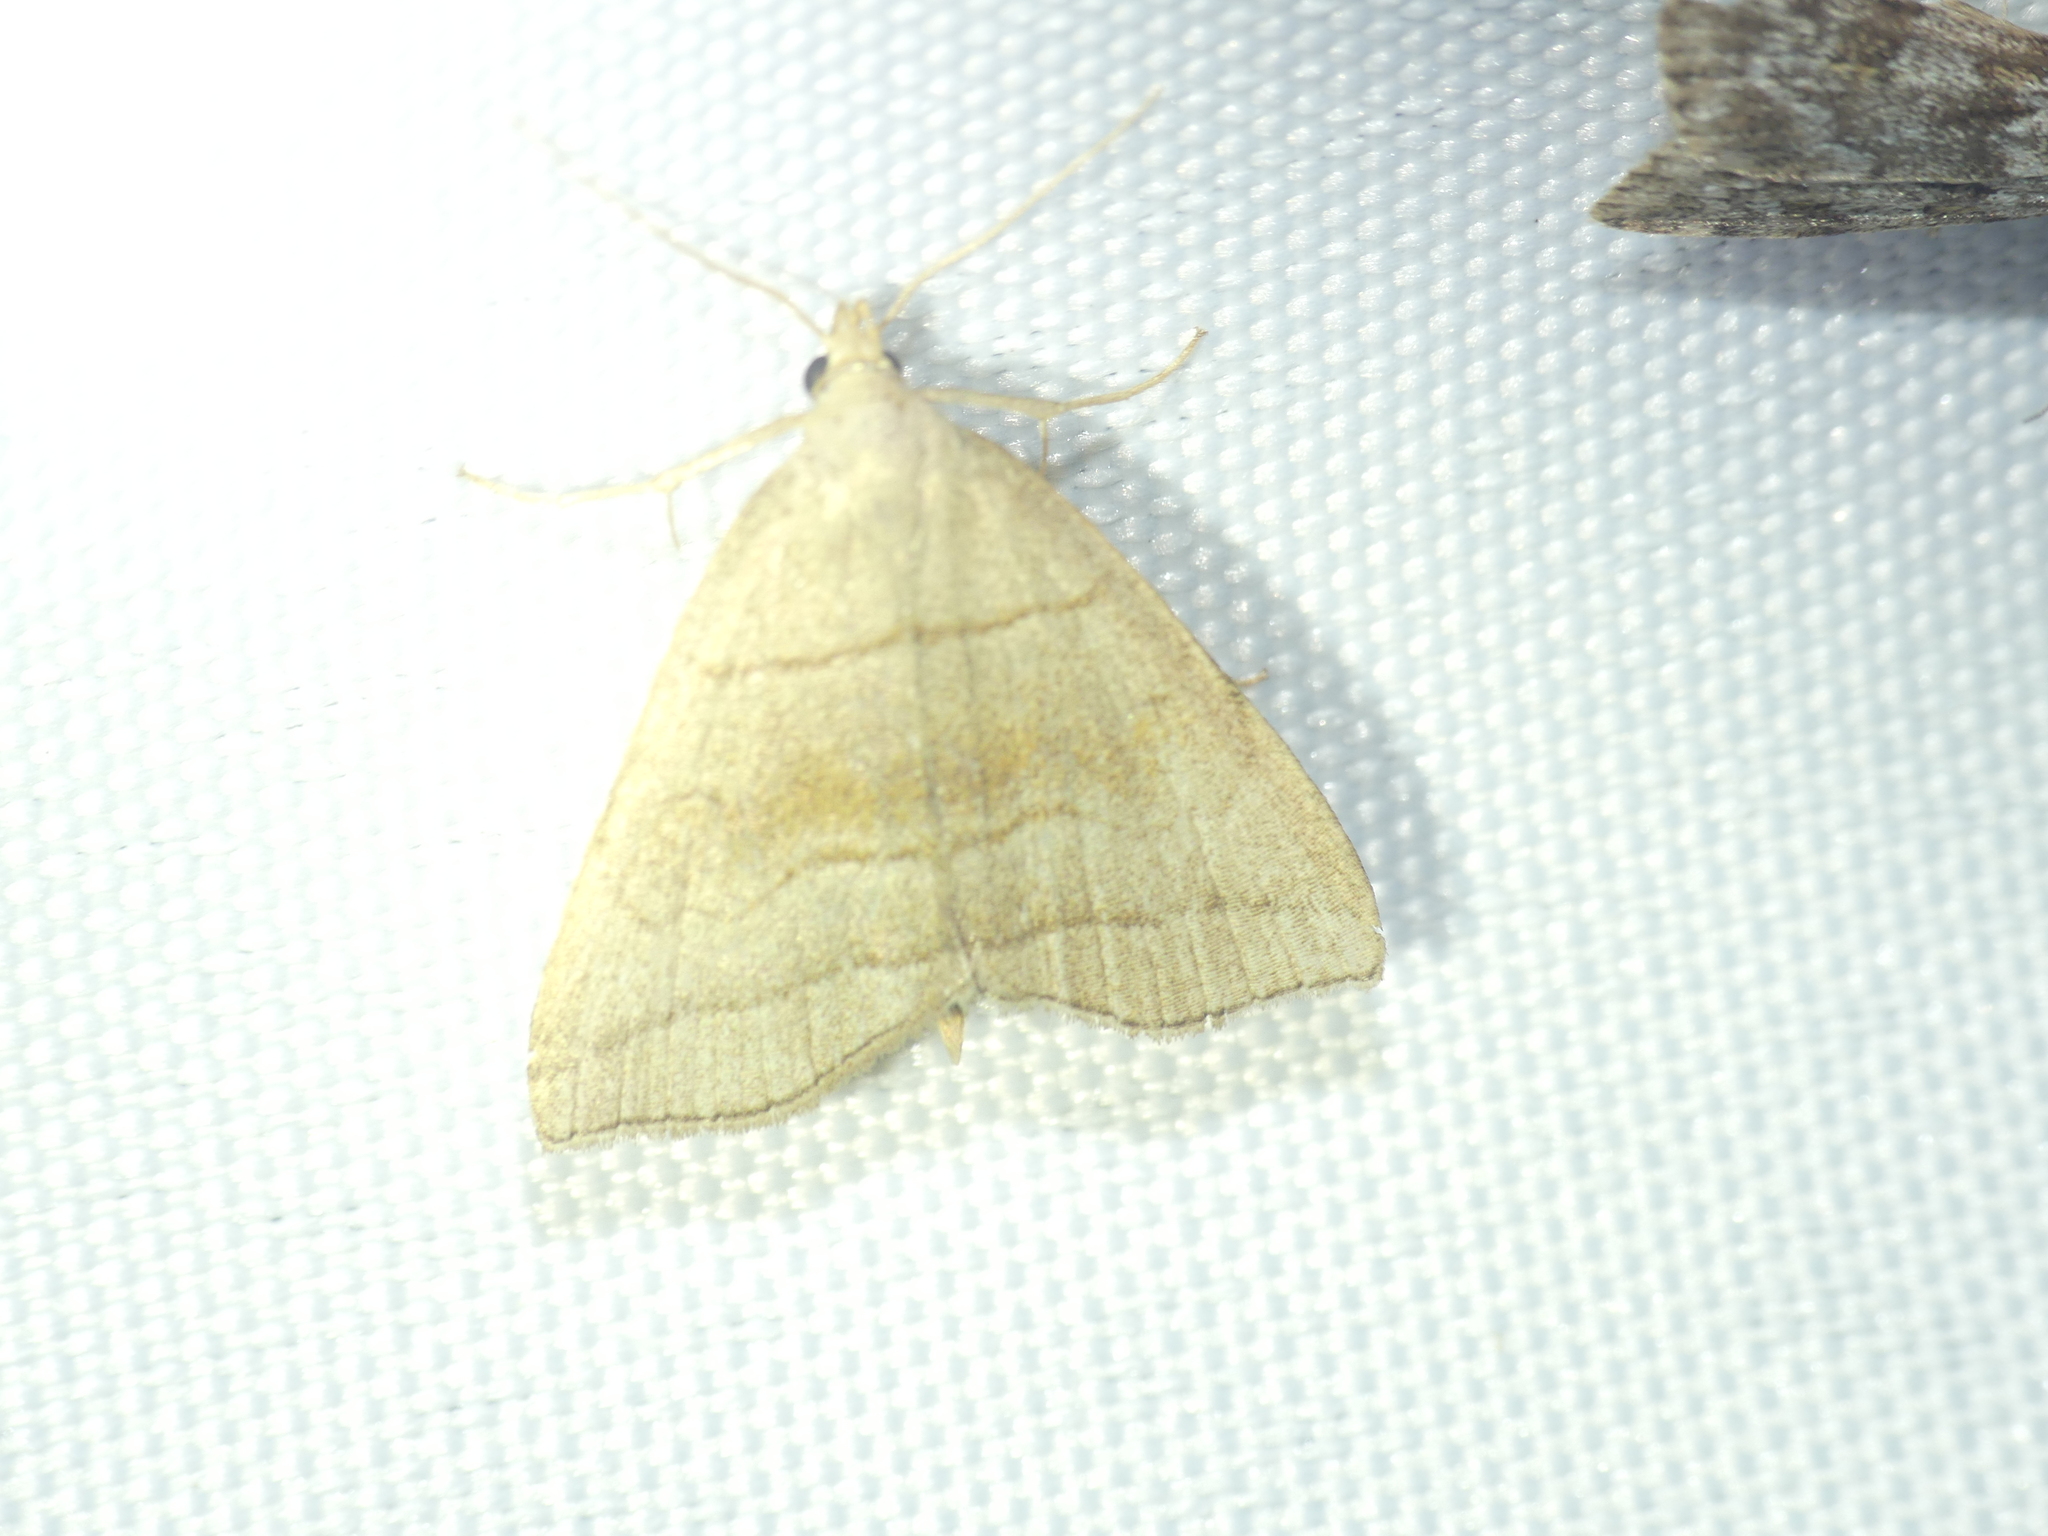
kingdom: Animalia
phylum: Arthropoda
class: Insecta
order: Lepidoptera
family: Erebidae
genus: Herminia
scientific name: Herminia tarsicrinalis
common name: Shaded fan-foot
